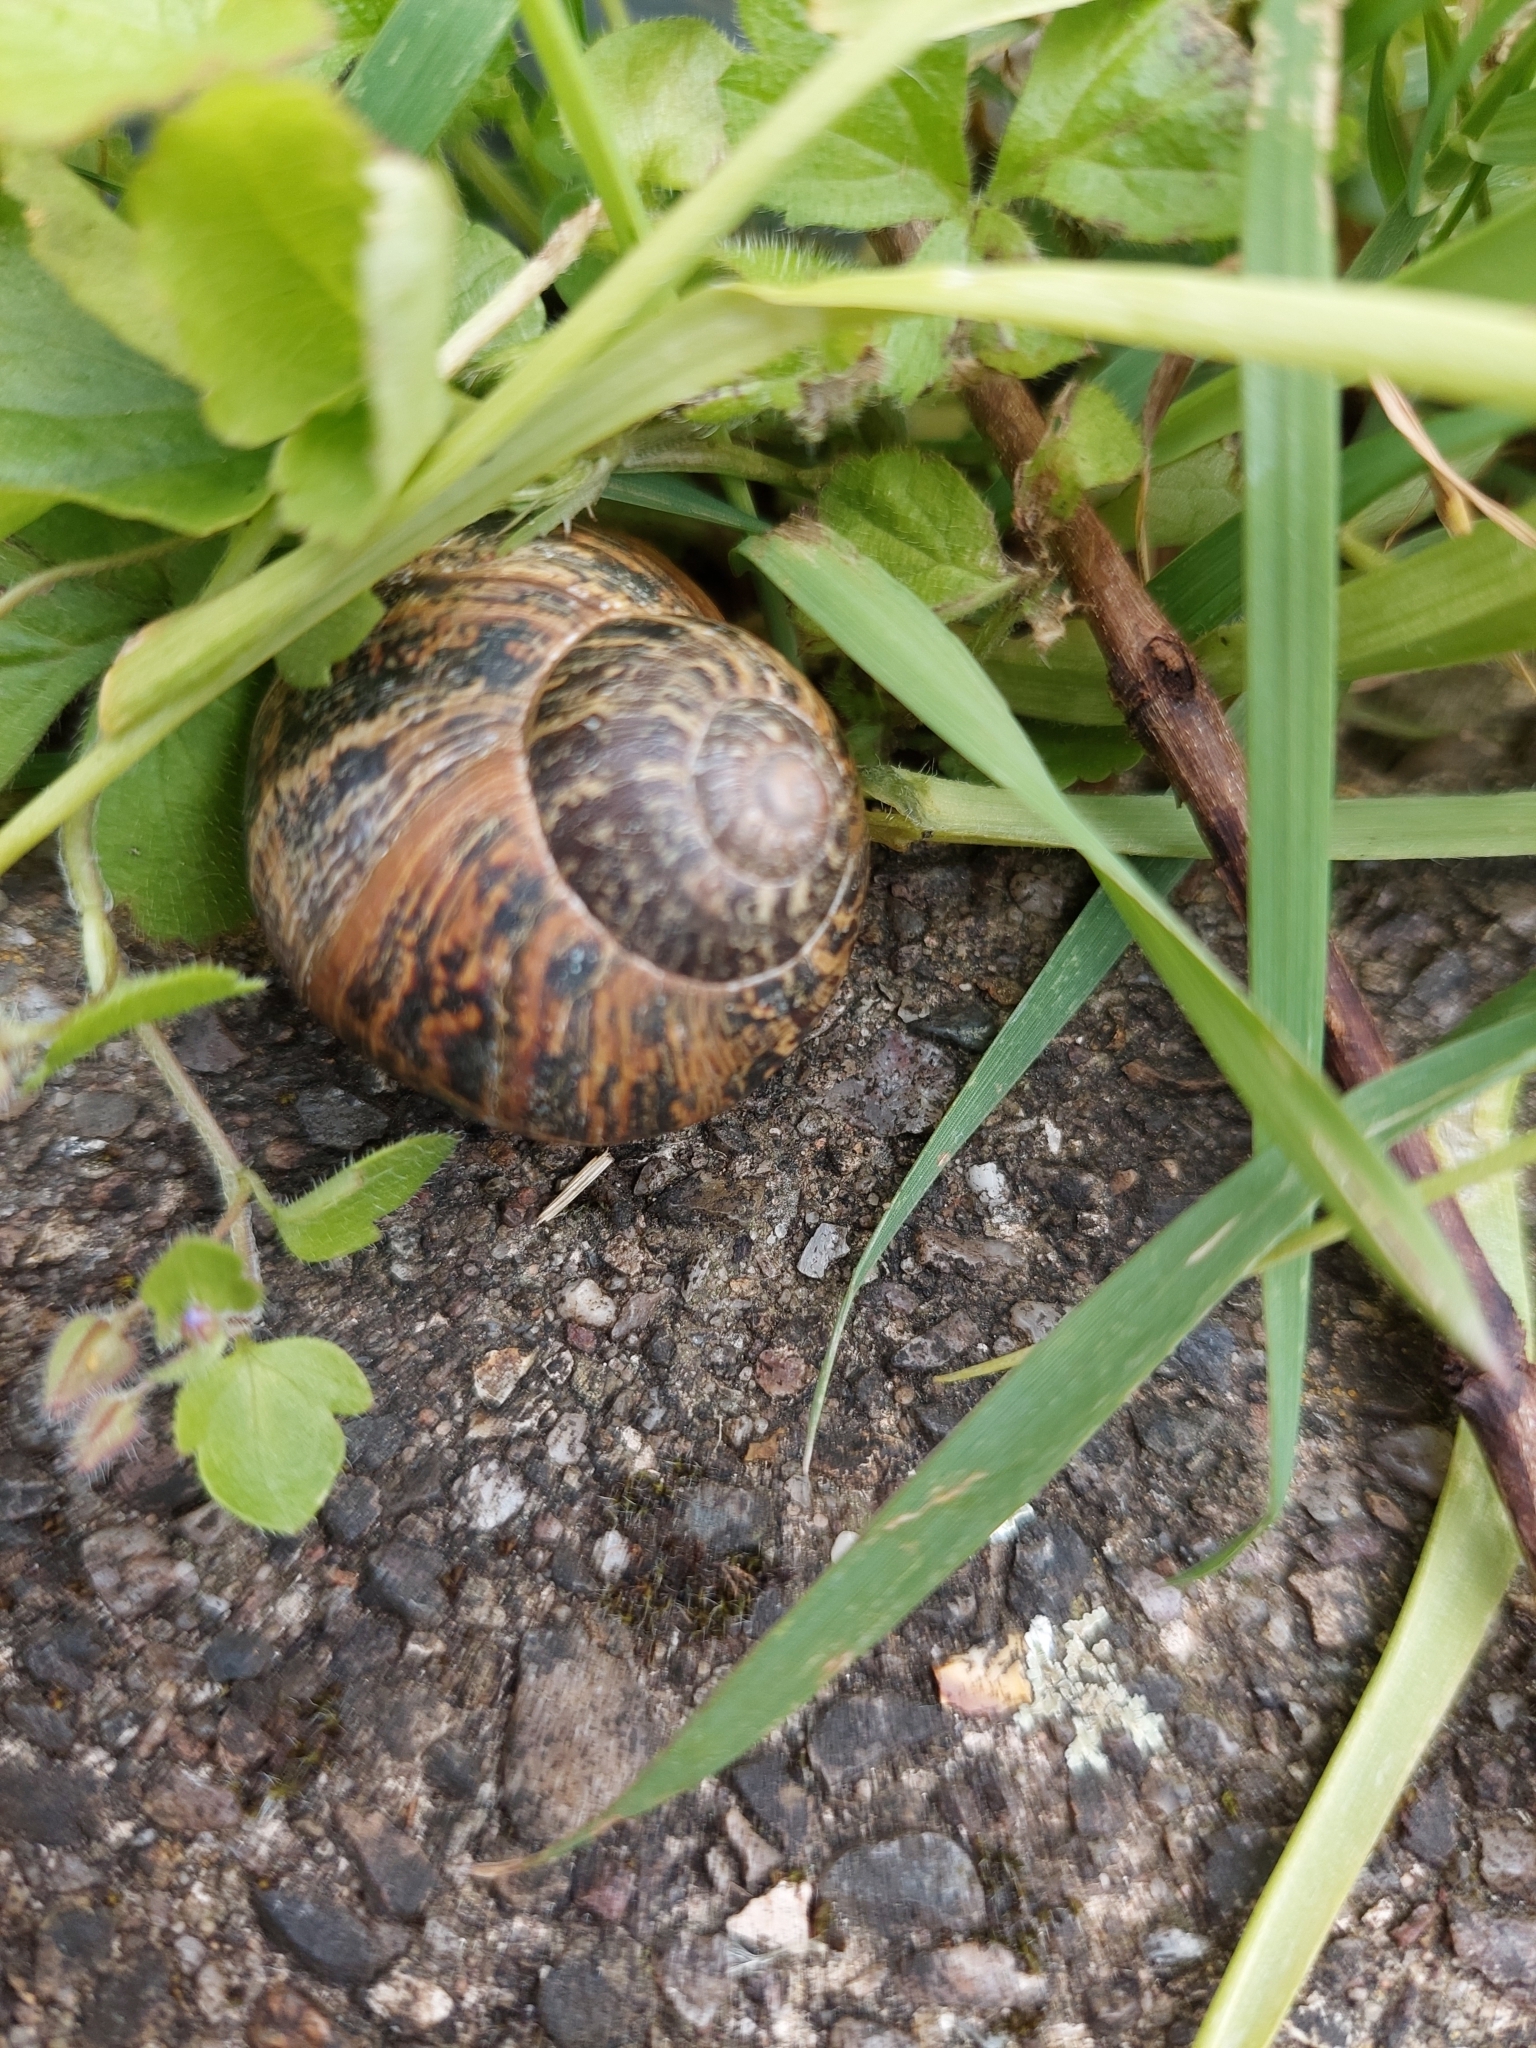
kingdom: Animalia
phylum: Mollusca
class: Gastropoda
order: Stylommatophora
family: Helicidae
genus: Cornu
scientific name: Cornu aspersum
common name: Brown garden snail
